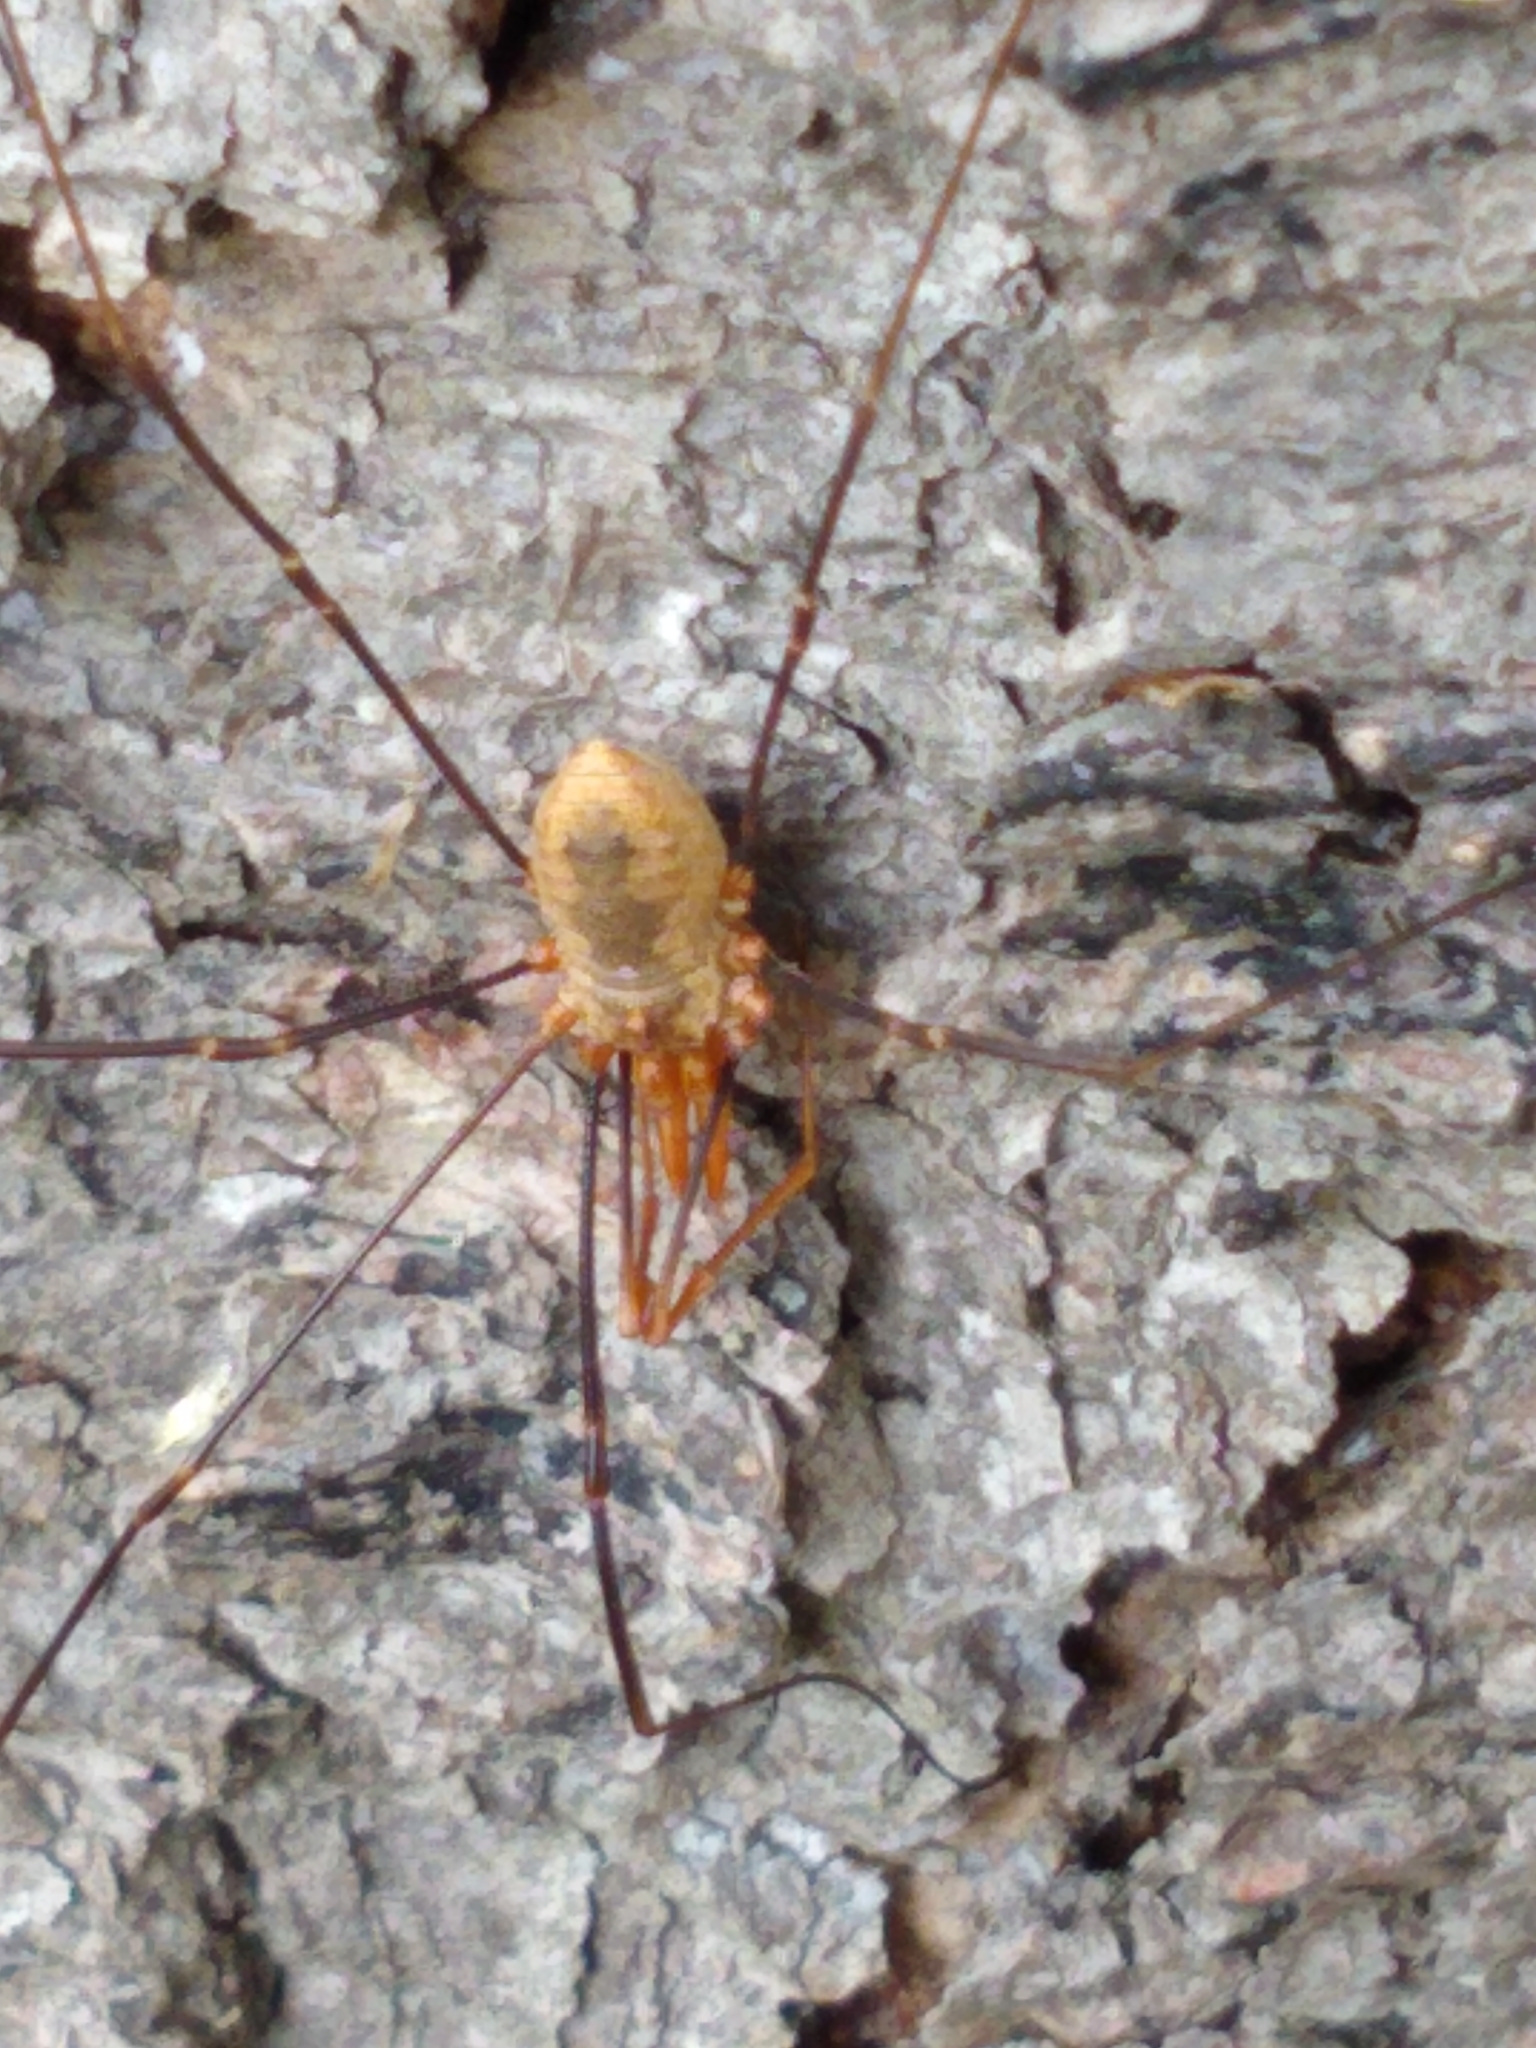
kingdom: Animalia
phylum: Arthropoda
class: Arachnida
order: Opiliones
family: Phalangiidae
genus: Phalangium
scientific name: Phalangium opilio
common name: Daddy longleg
